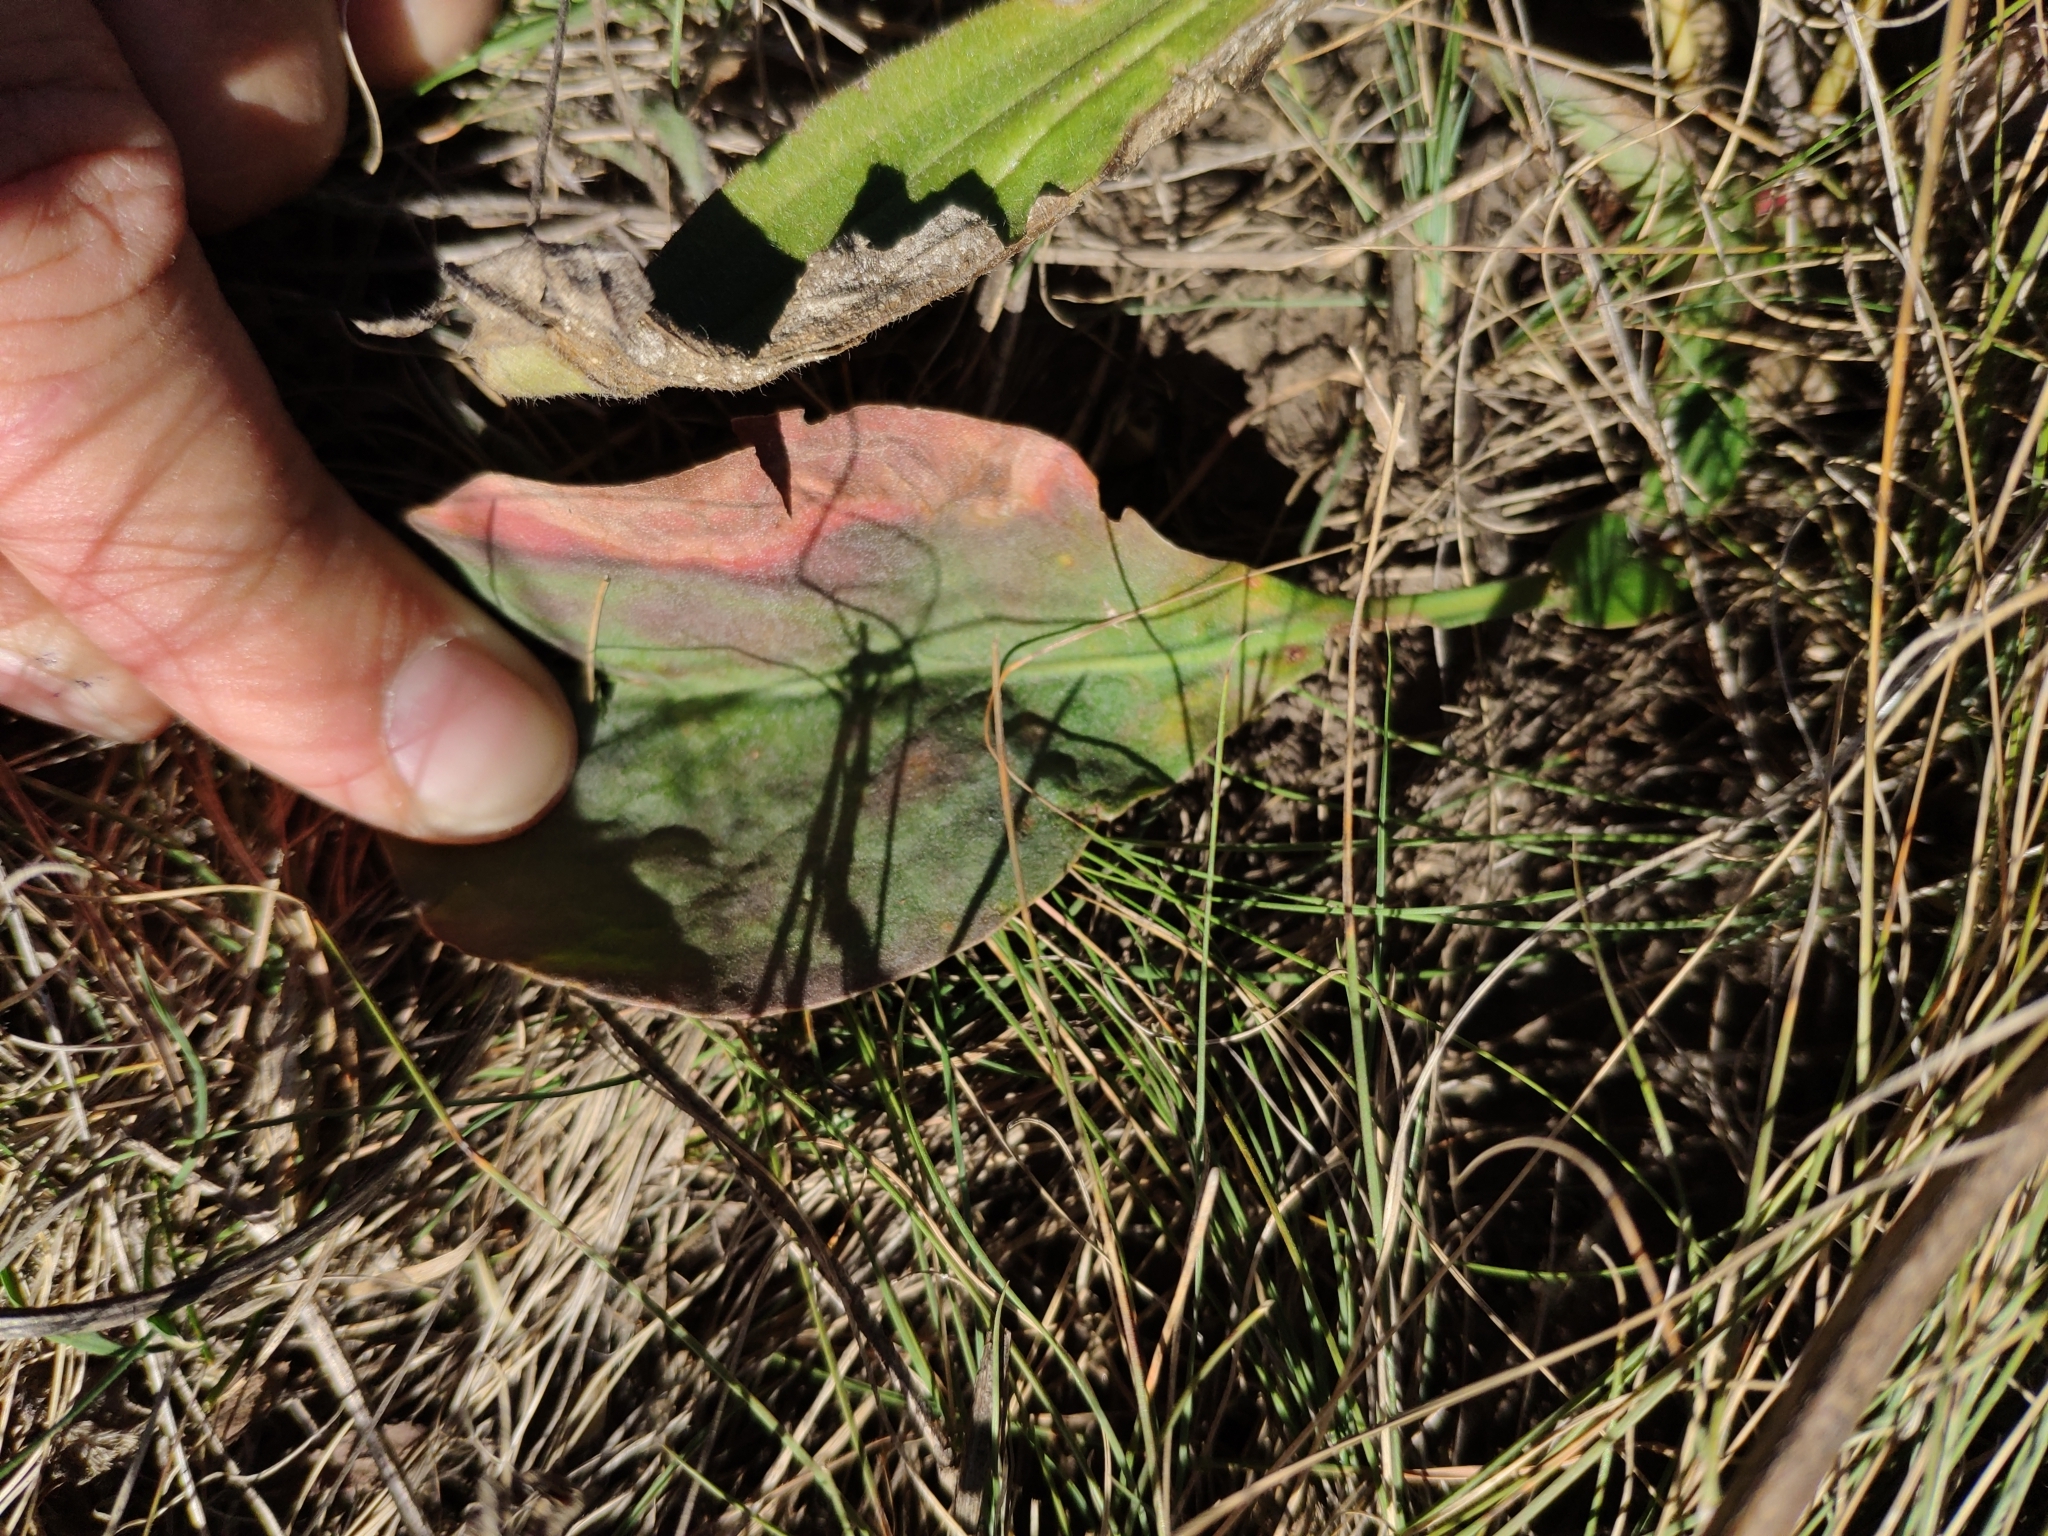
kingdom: Plantae
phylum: Tracheophyta
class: Magnoliopsida
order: Caryophyllales
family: Plumbaginaceae
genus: Limonium
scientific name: Limonium bungei
